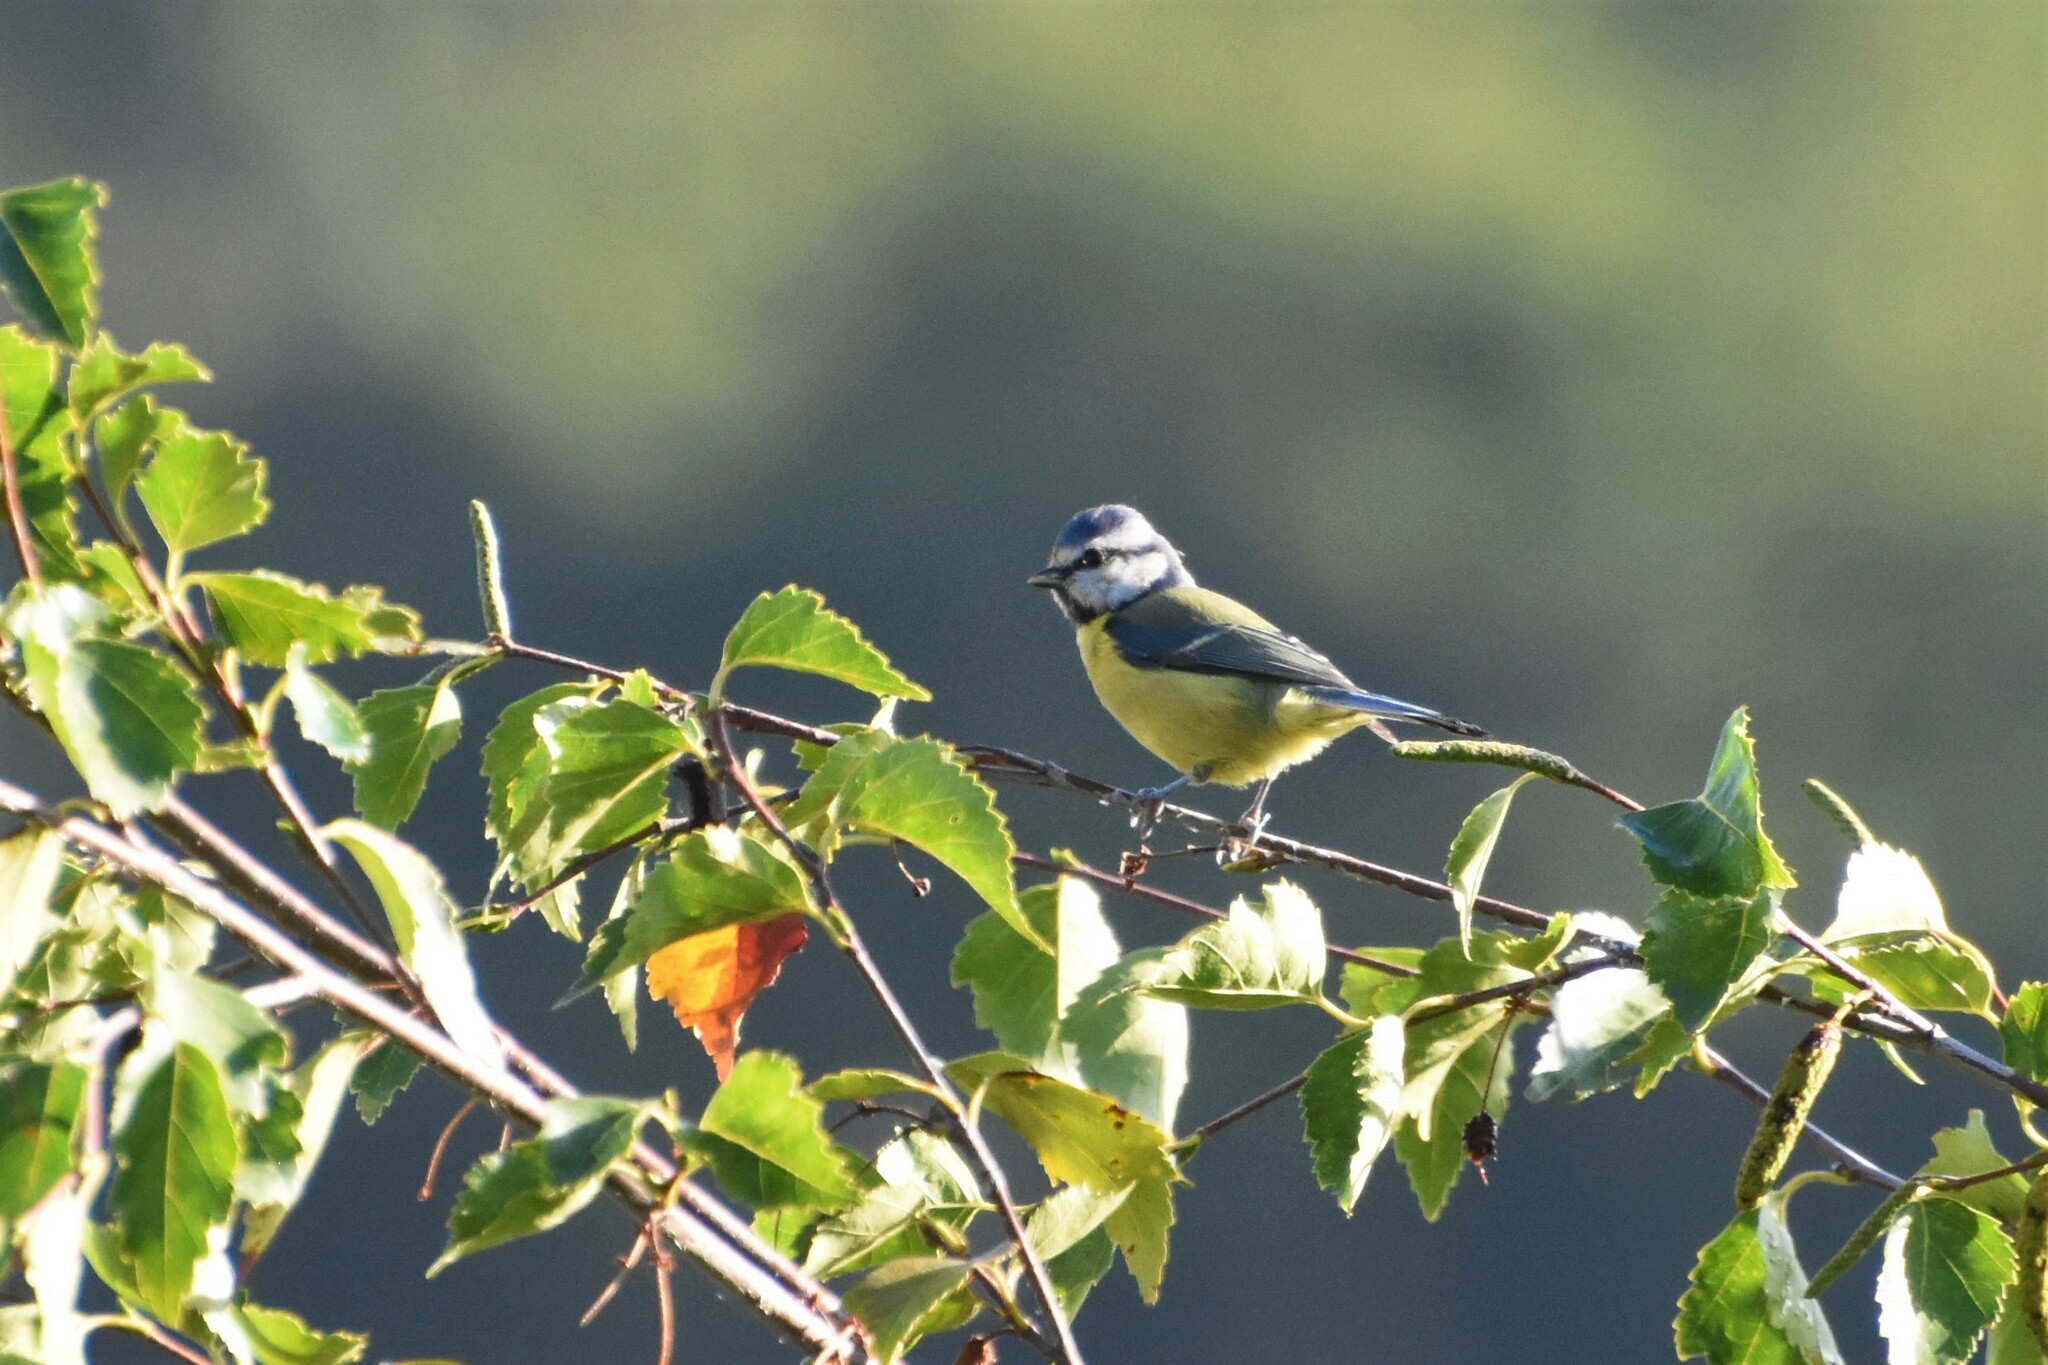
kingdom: Animalia
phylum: Chordata
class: Aves
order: Passeriformes
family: Paridae
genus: Cyanistes
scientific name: Cyanistes caeruleus
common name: Eurasian blue tit
